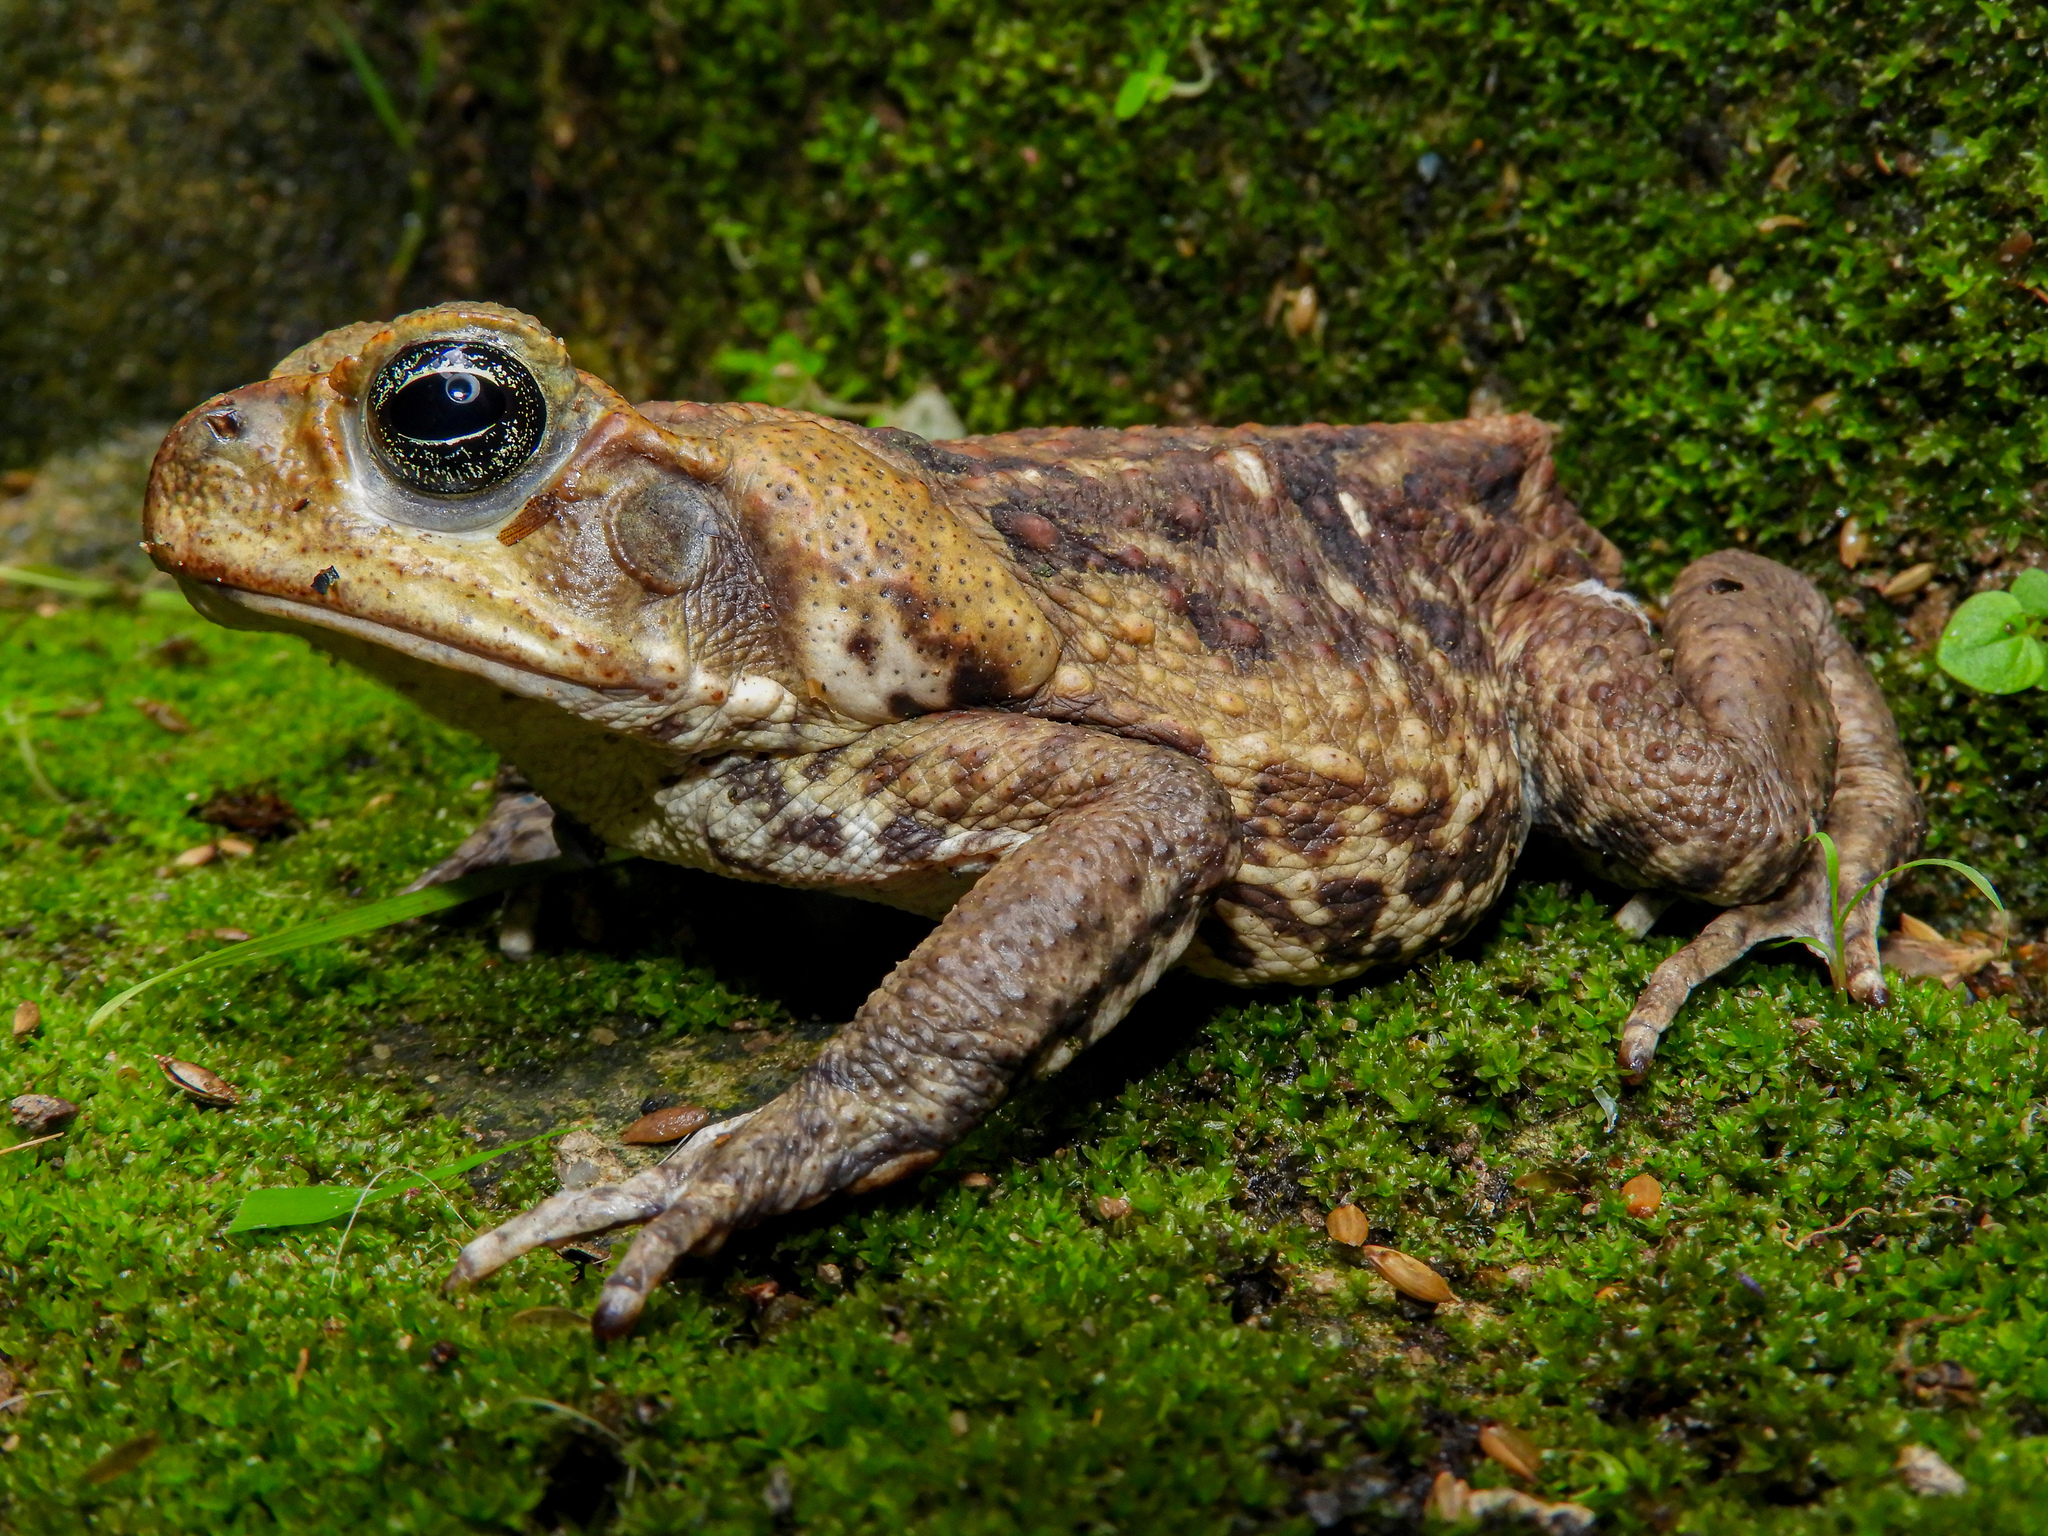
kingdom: Animalia
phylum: Chordata
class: Amphibia
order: Anura
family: Bufonidae
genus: Rhinella
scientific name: Rhinella horribilis
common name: Mesoamerican cane toad
